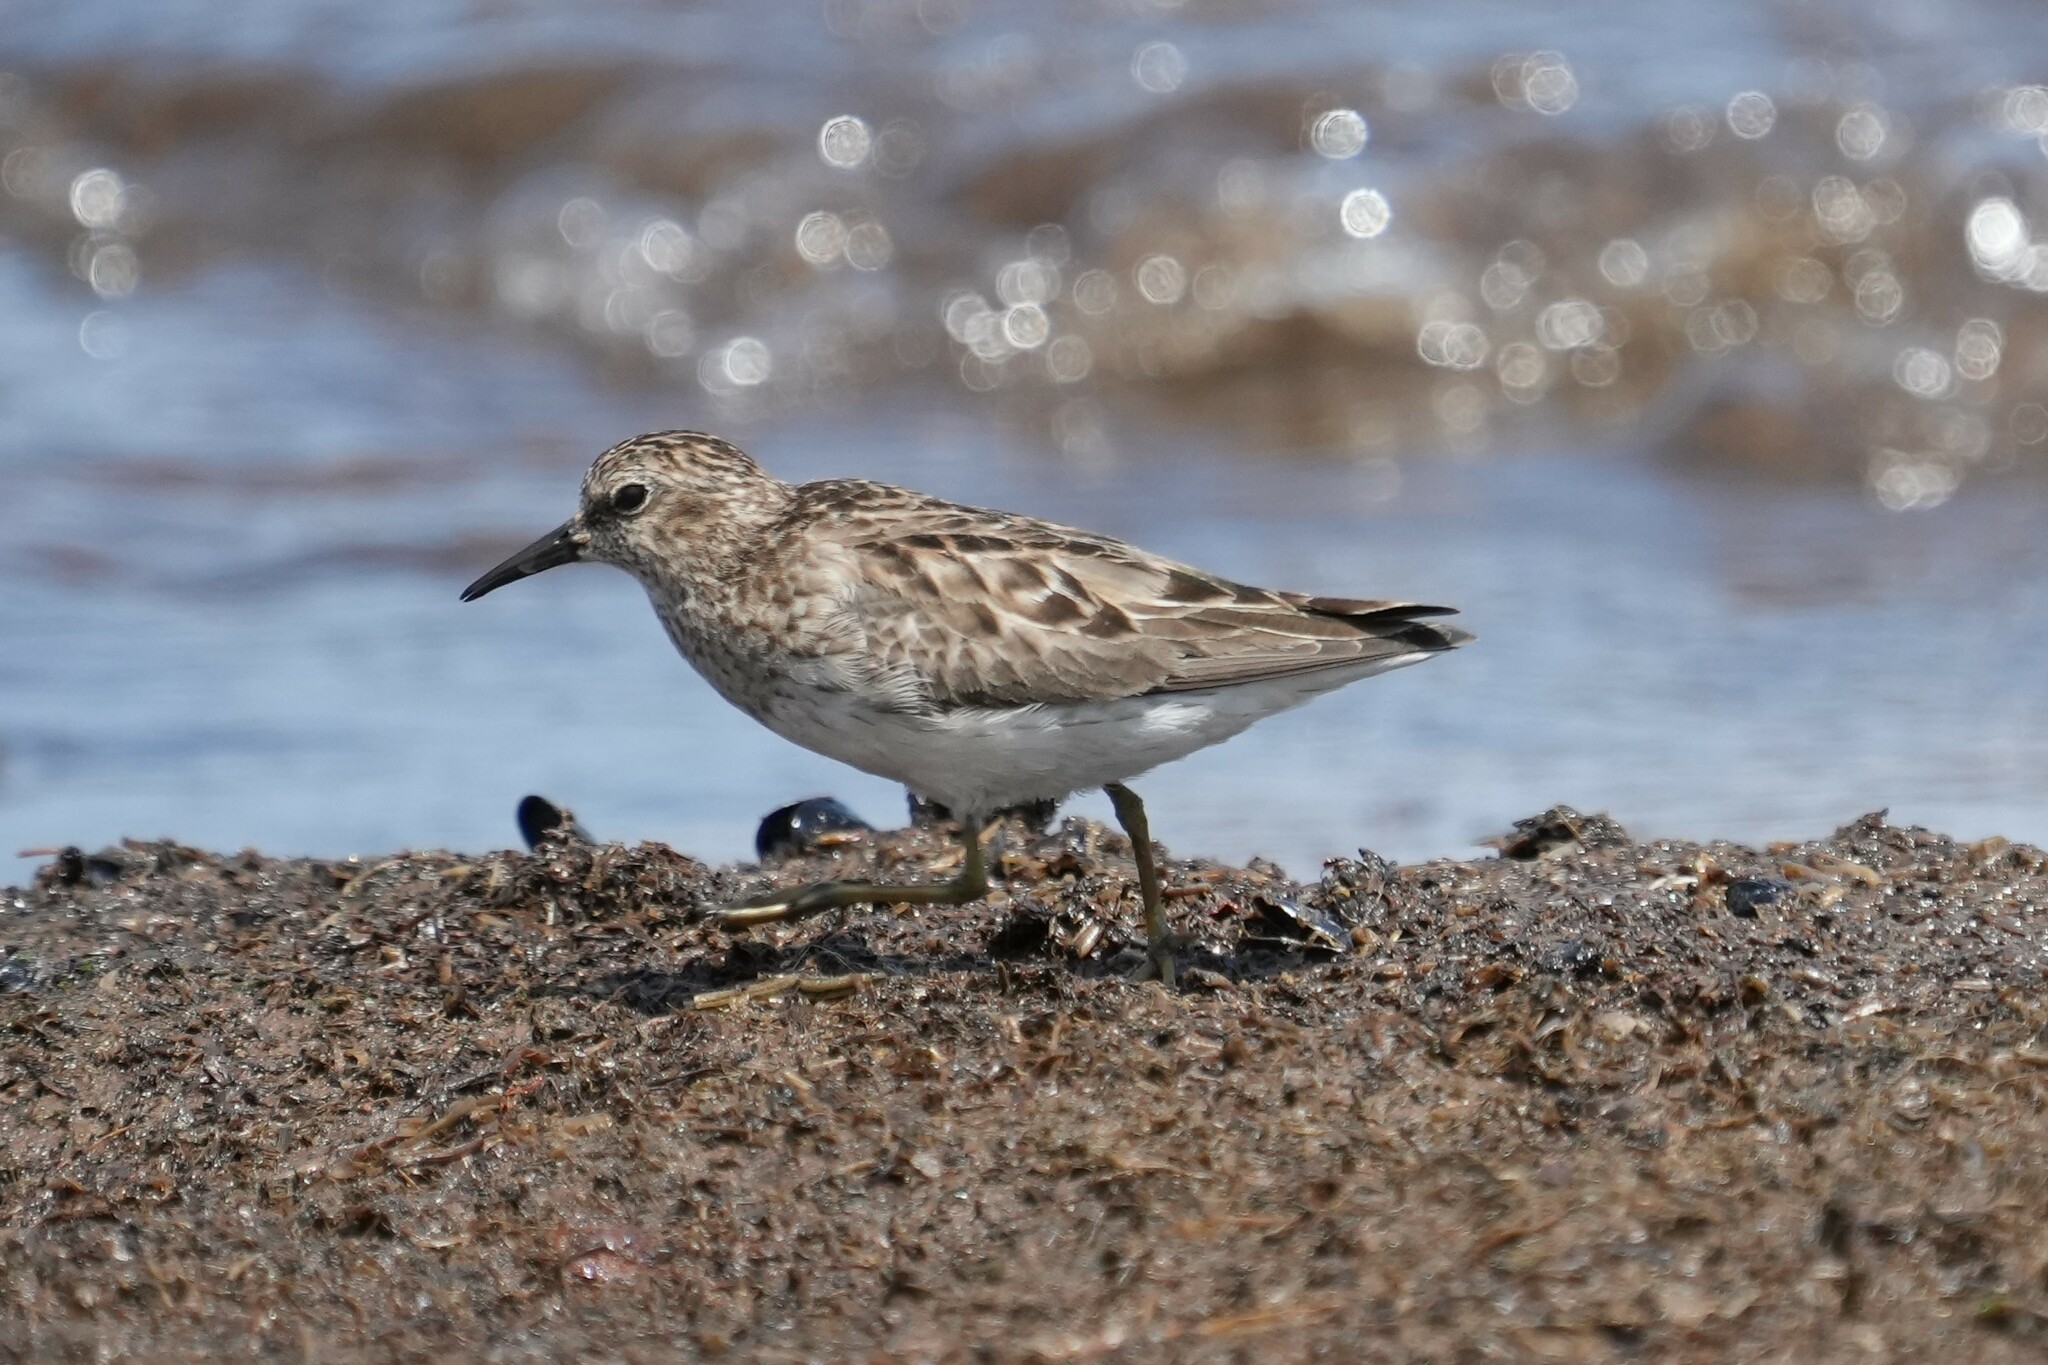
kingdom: Animalia
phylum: Chordata
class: Aves
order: Charadriiformes
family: Scolopacidae
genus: Calidris
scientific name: Calidris minutilla
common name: Least sandpiper
